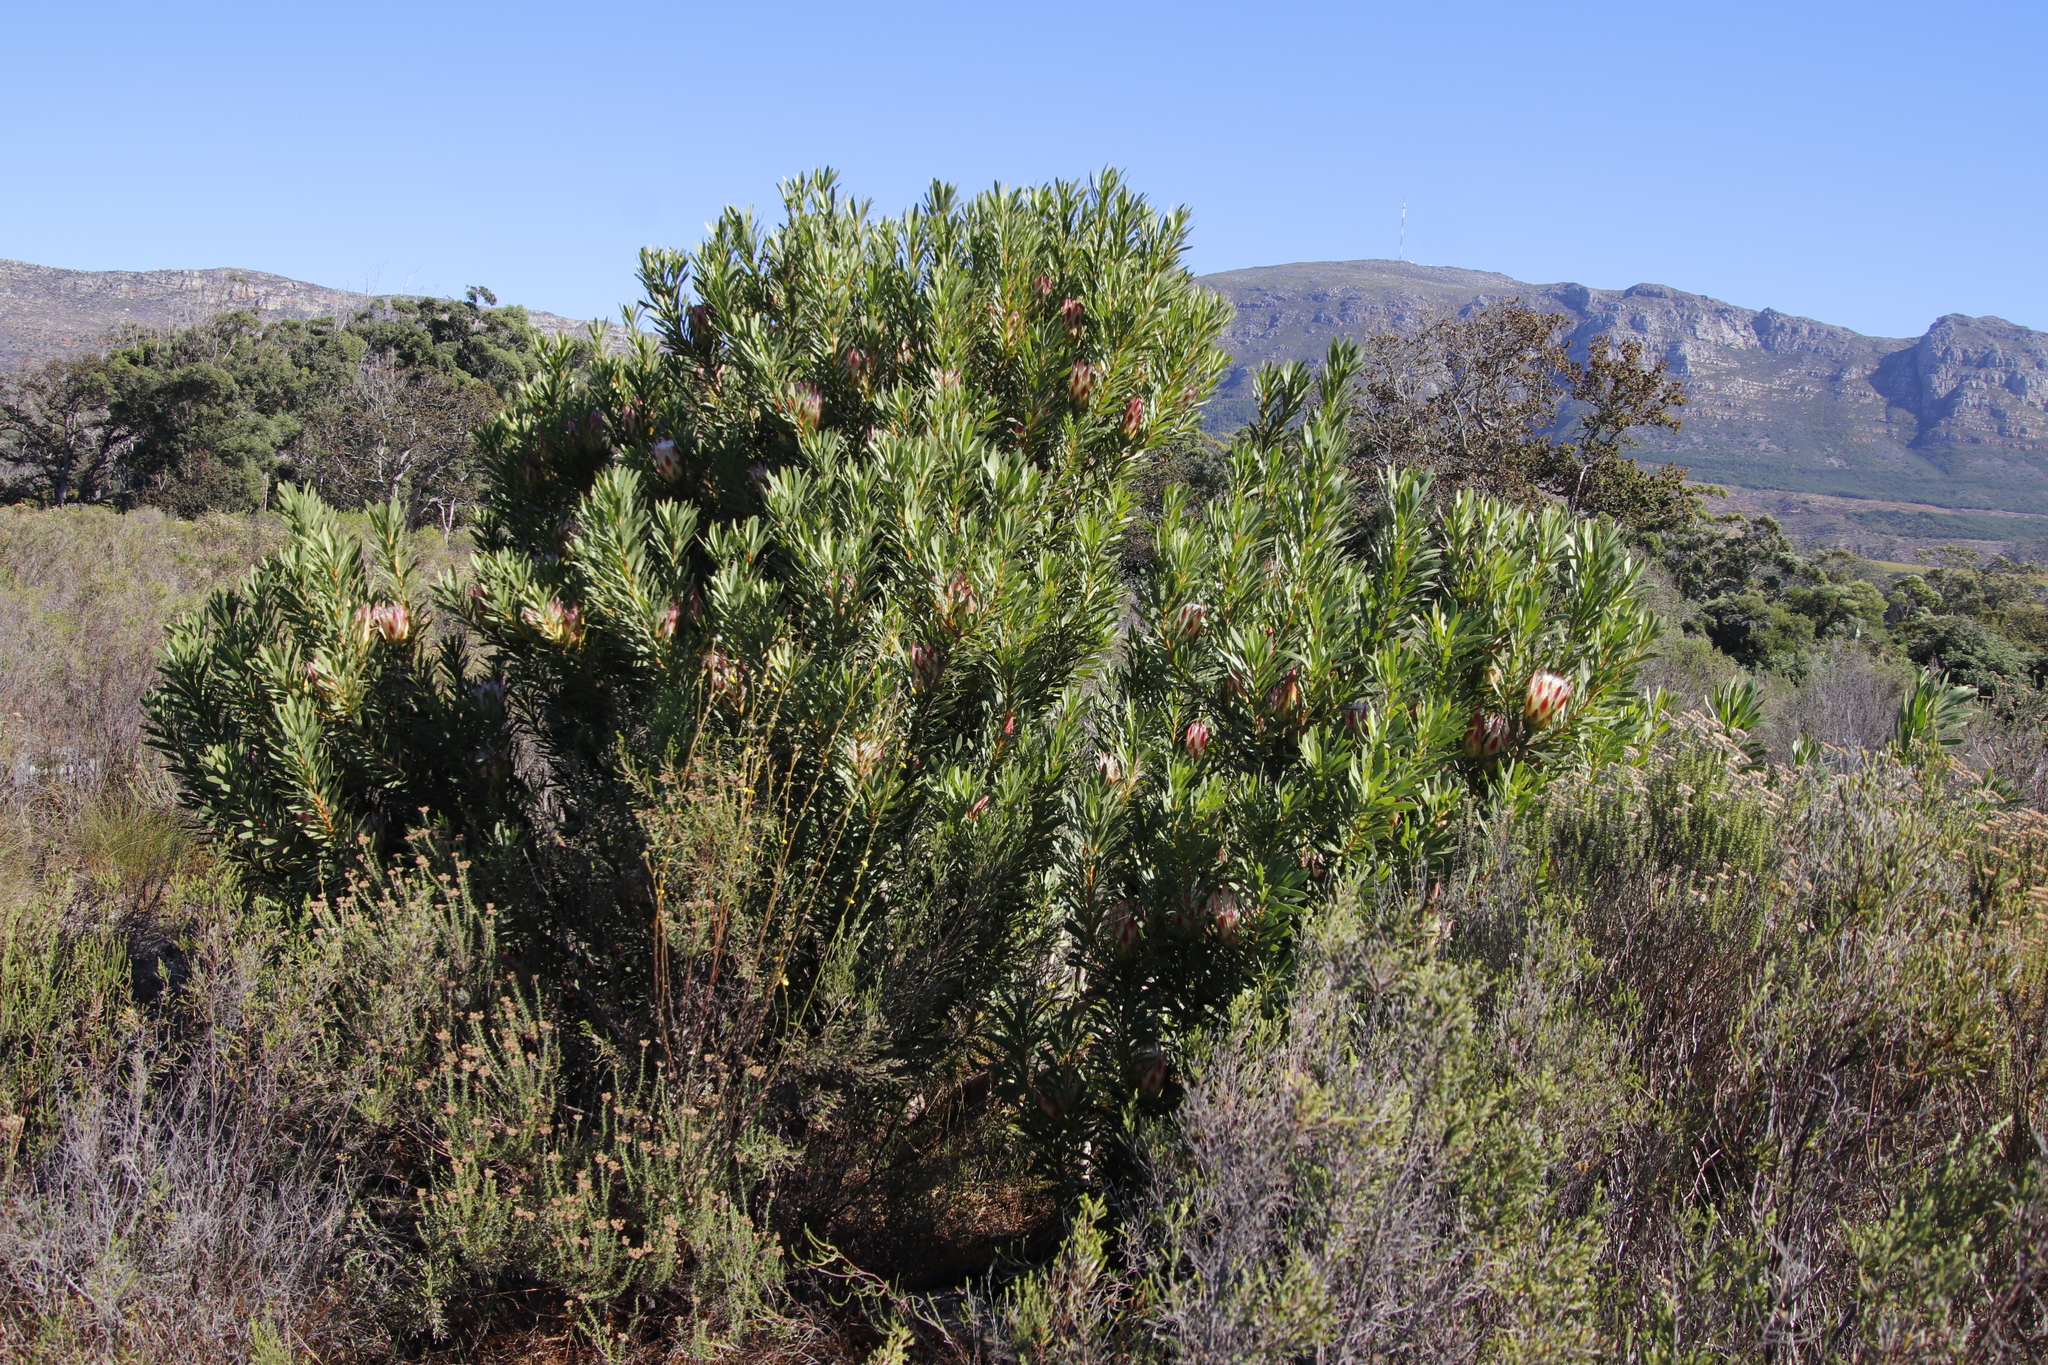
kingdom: Plantae
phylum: Tracheophyta
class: Magnoliopsida
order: Proteales
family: Proteaceae
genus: Protea
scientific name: Protea repens
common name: Sugarbush
